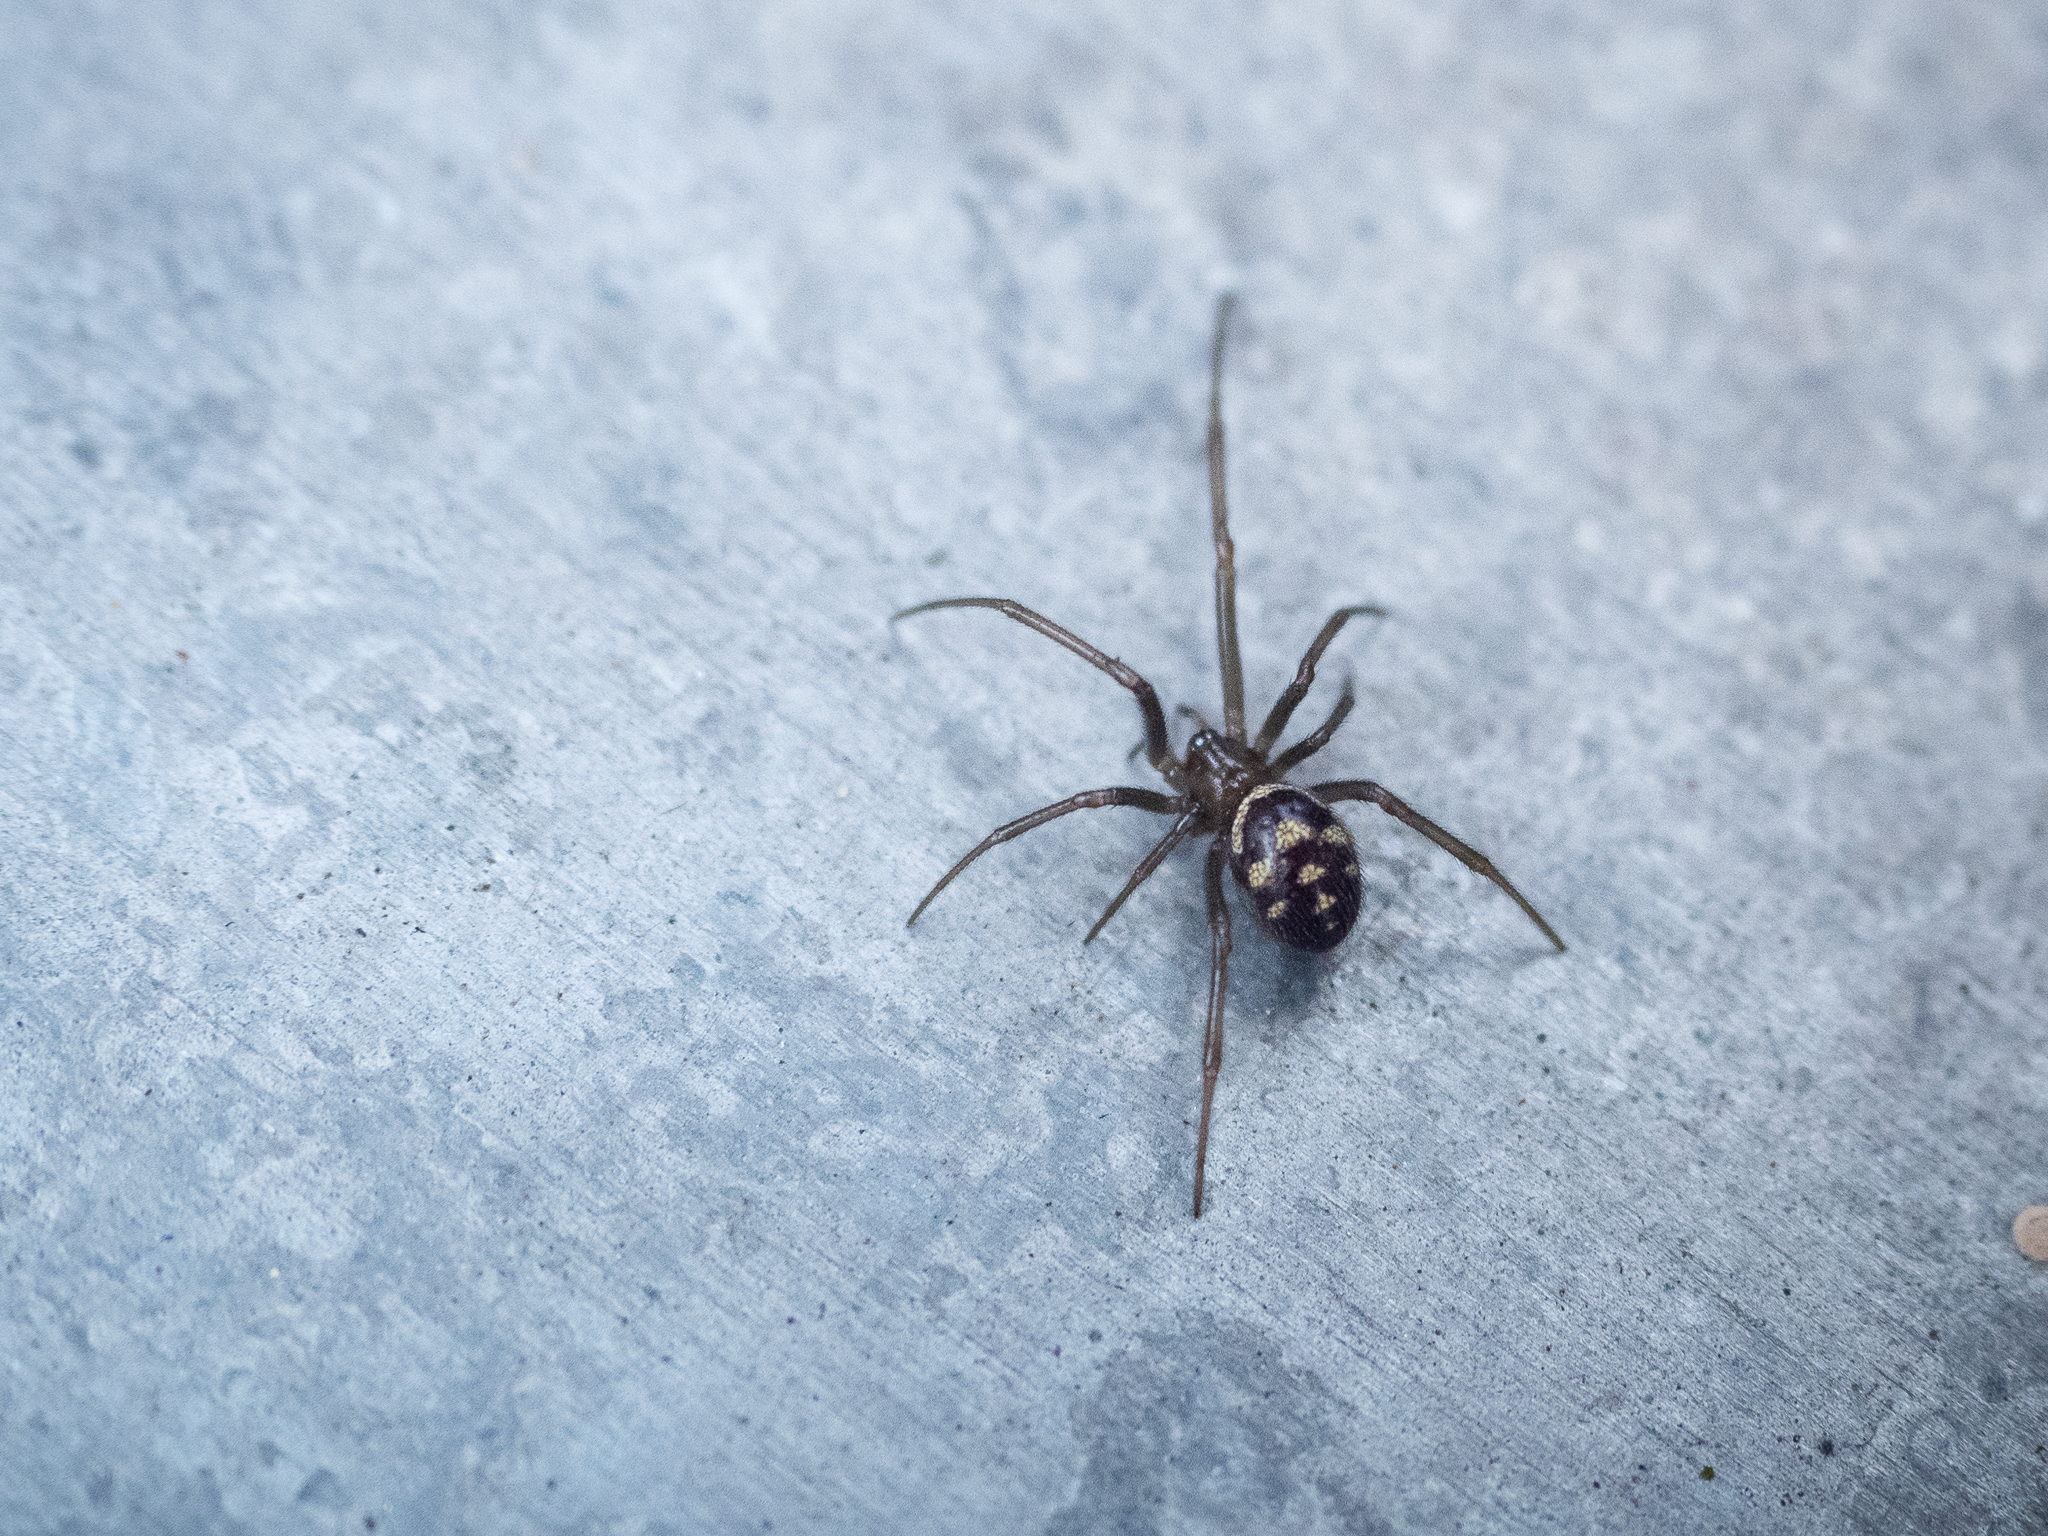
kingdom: Animalia
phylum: Arthropoda
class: Arachnida
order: Araneae
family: Theridiidae
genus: Steatoda
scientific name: Steatoda grossa
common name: False black widow
